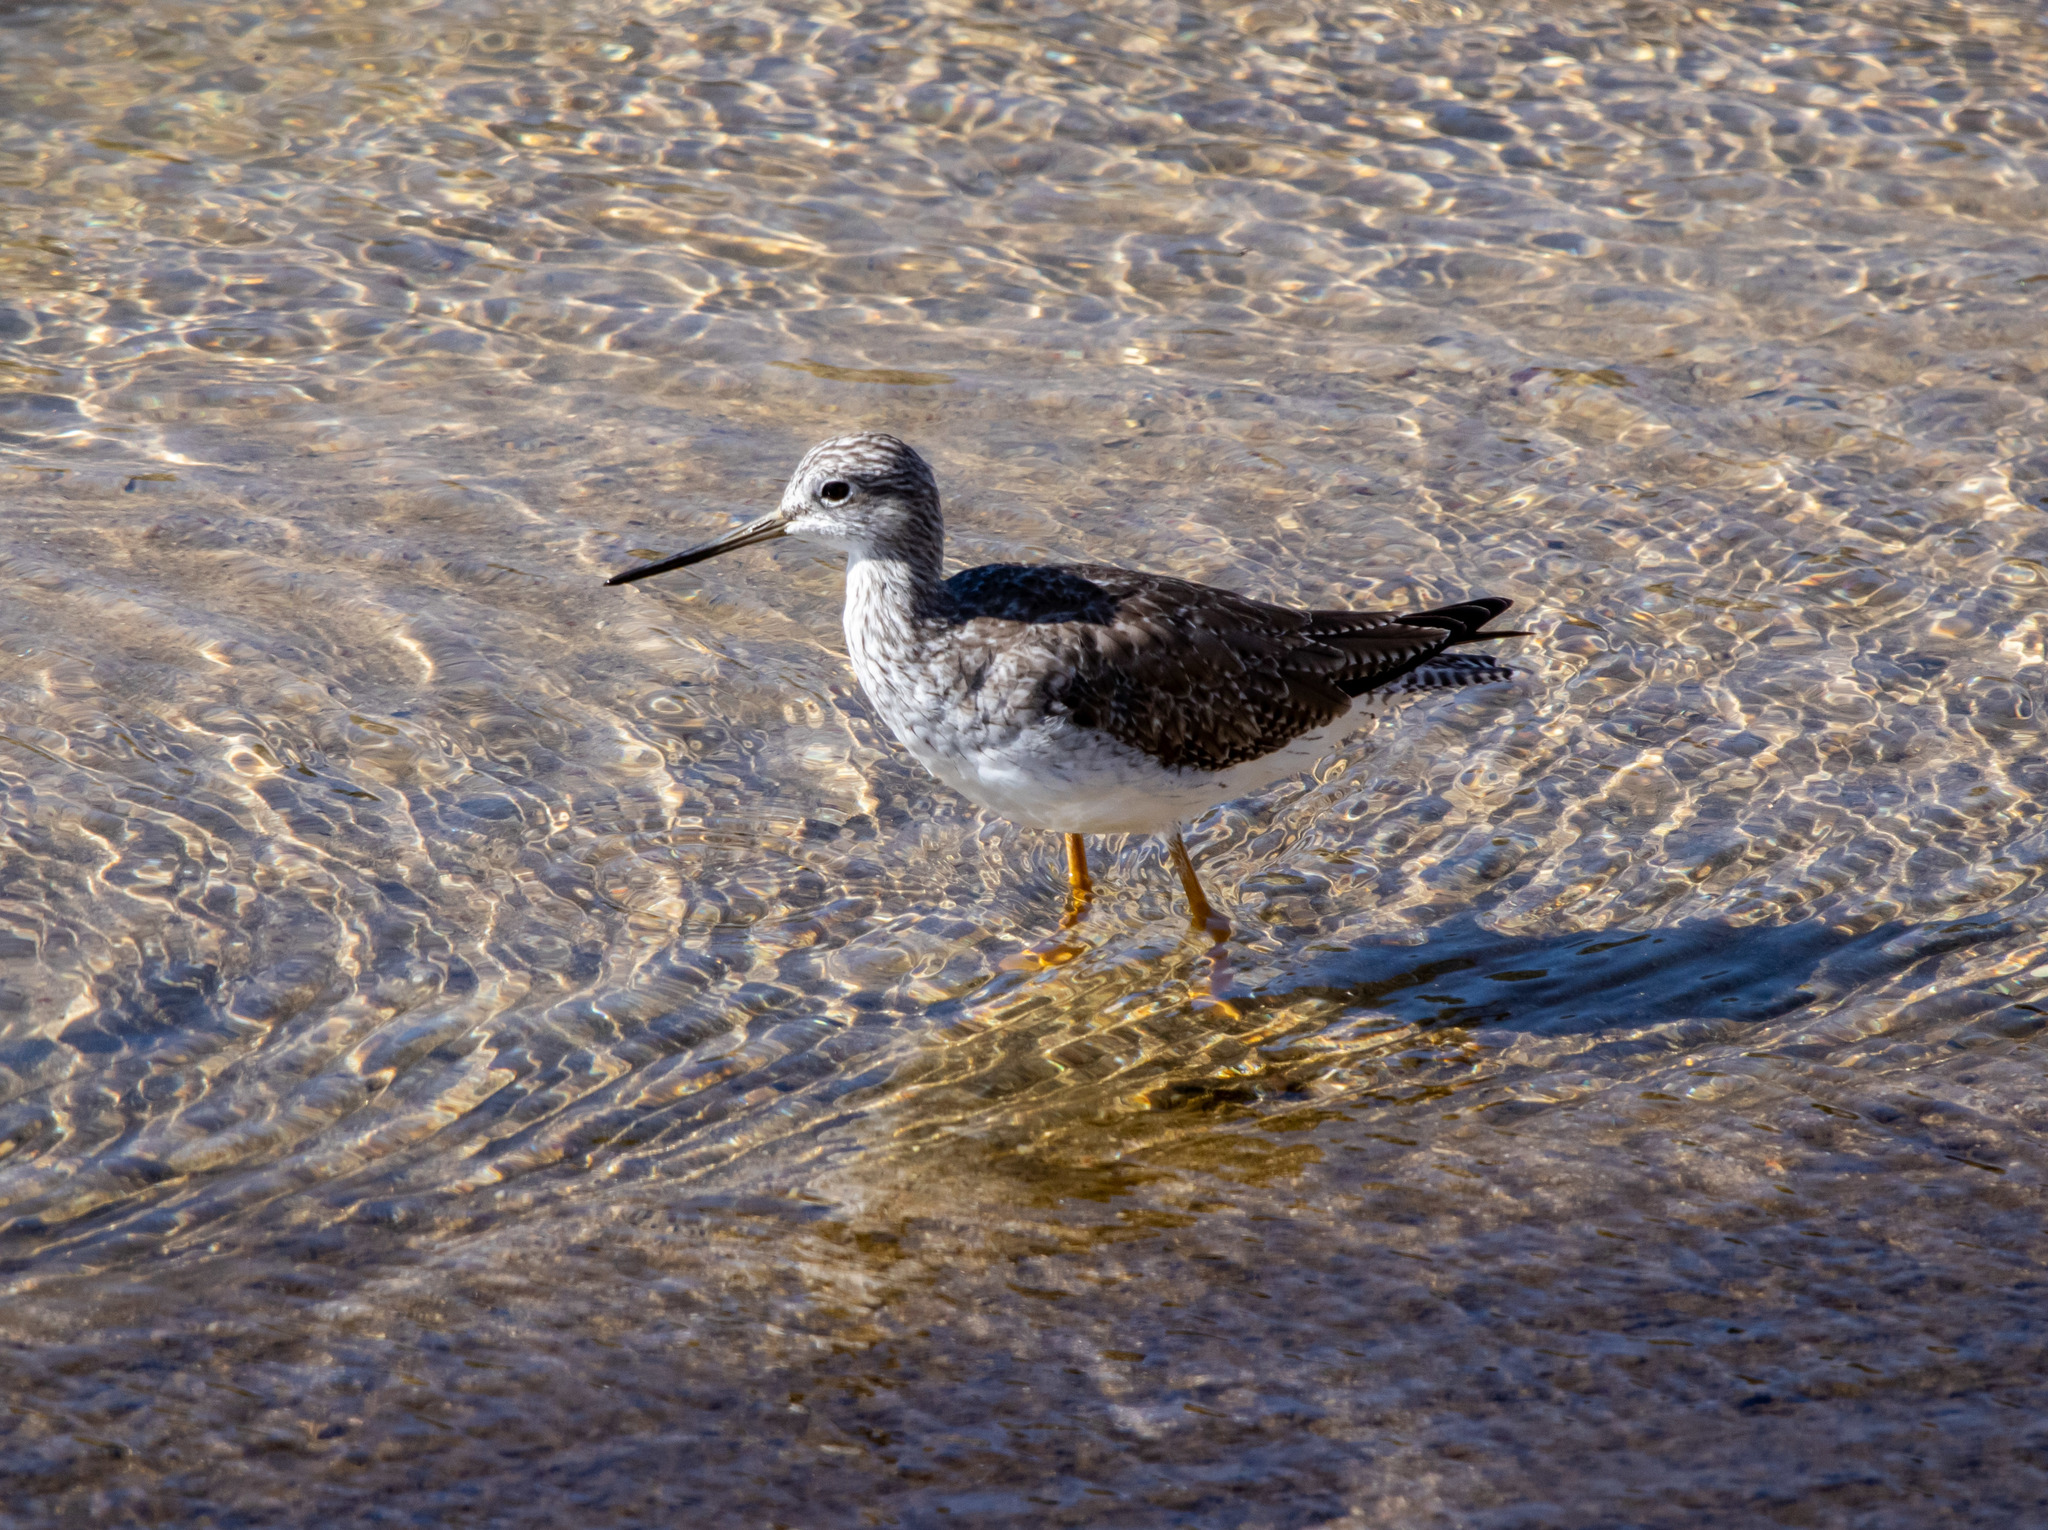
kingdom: Animalia
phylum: Chordata
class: Aves
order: Charadriiformes
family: Scolopacidae
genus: Tringa
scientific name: Tringa melanoleuca
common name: Greater yellowlegs
